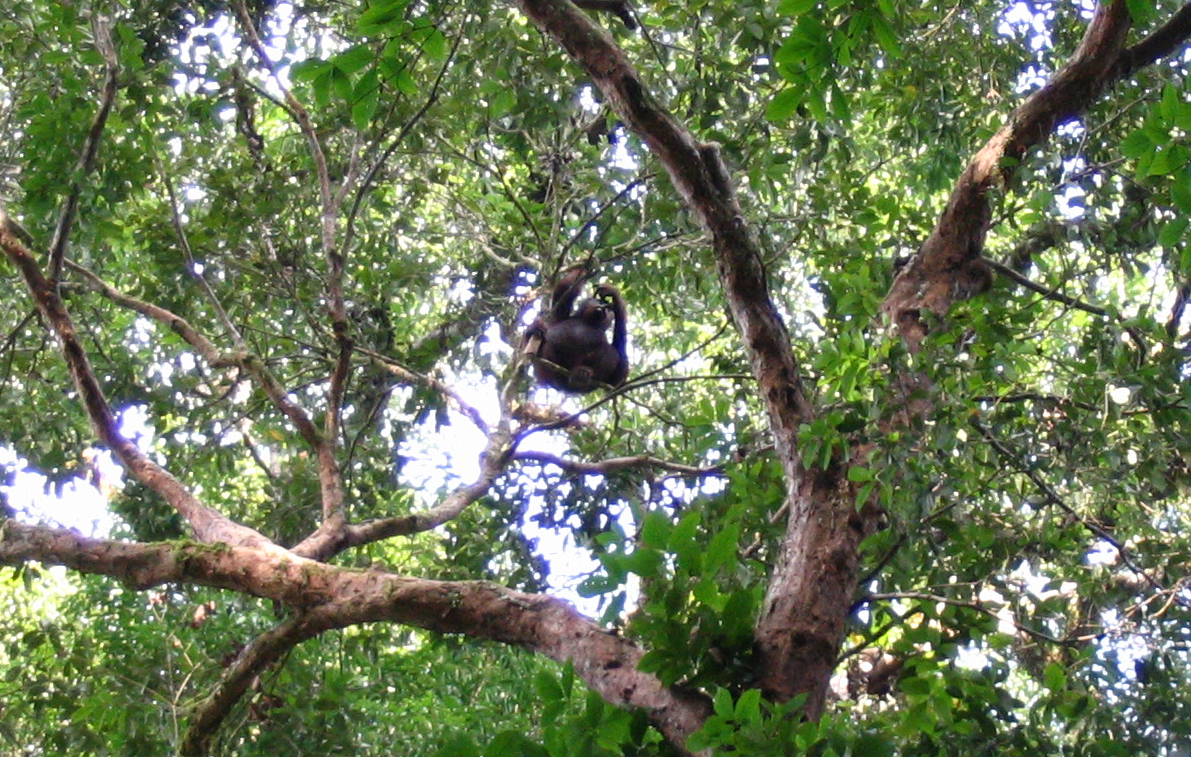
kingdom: Animalia
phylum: Chordata
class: Mammalia
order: Primates
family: Hominidae
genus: Pongo
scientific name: Pongo pygmaeus
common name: Bornean orangutan
